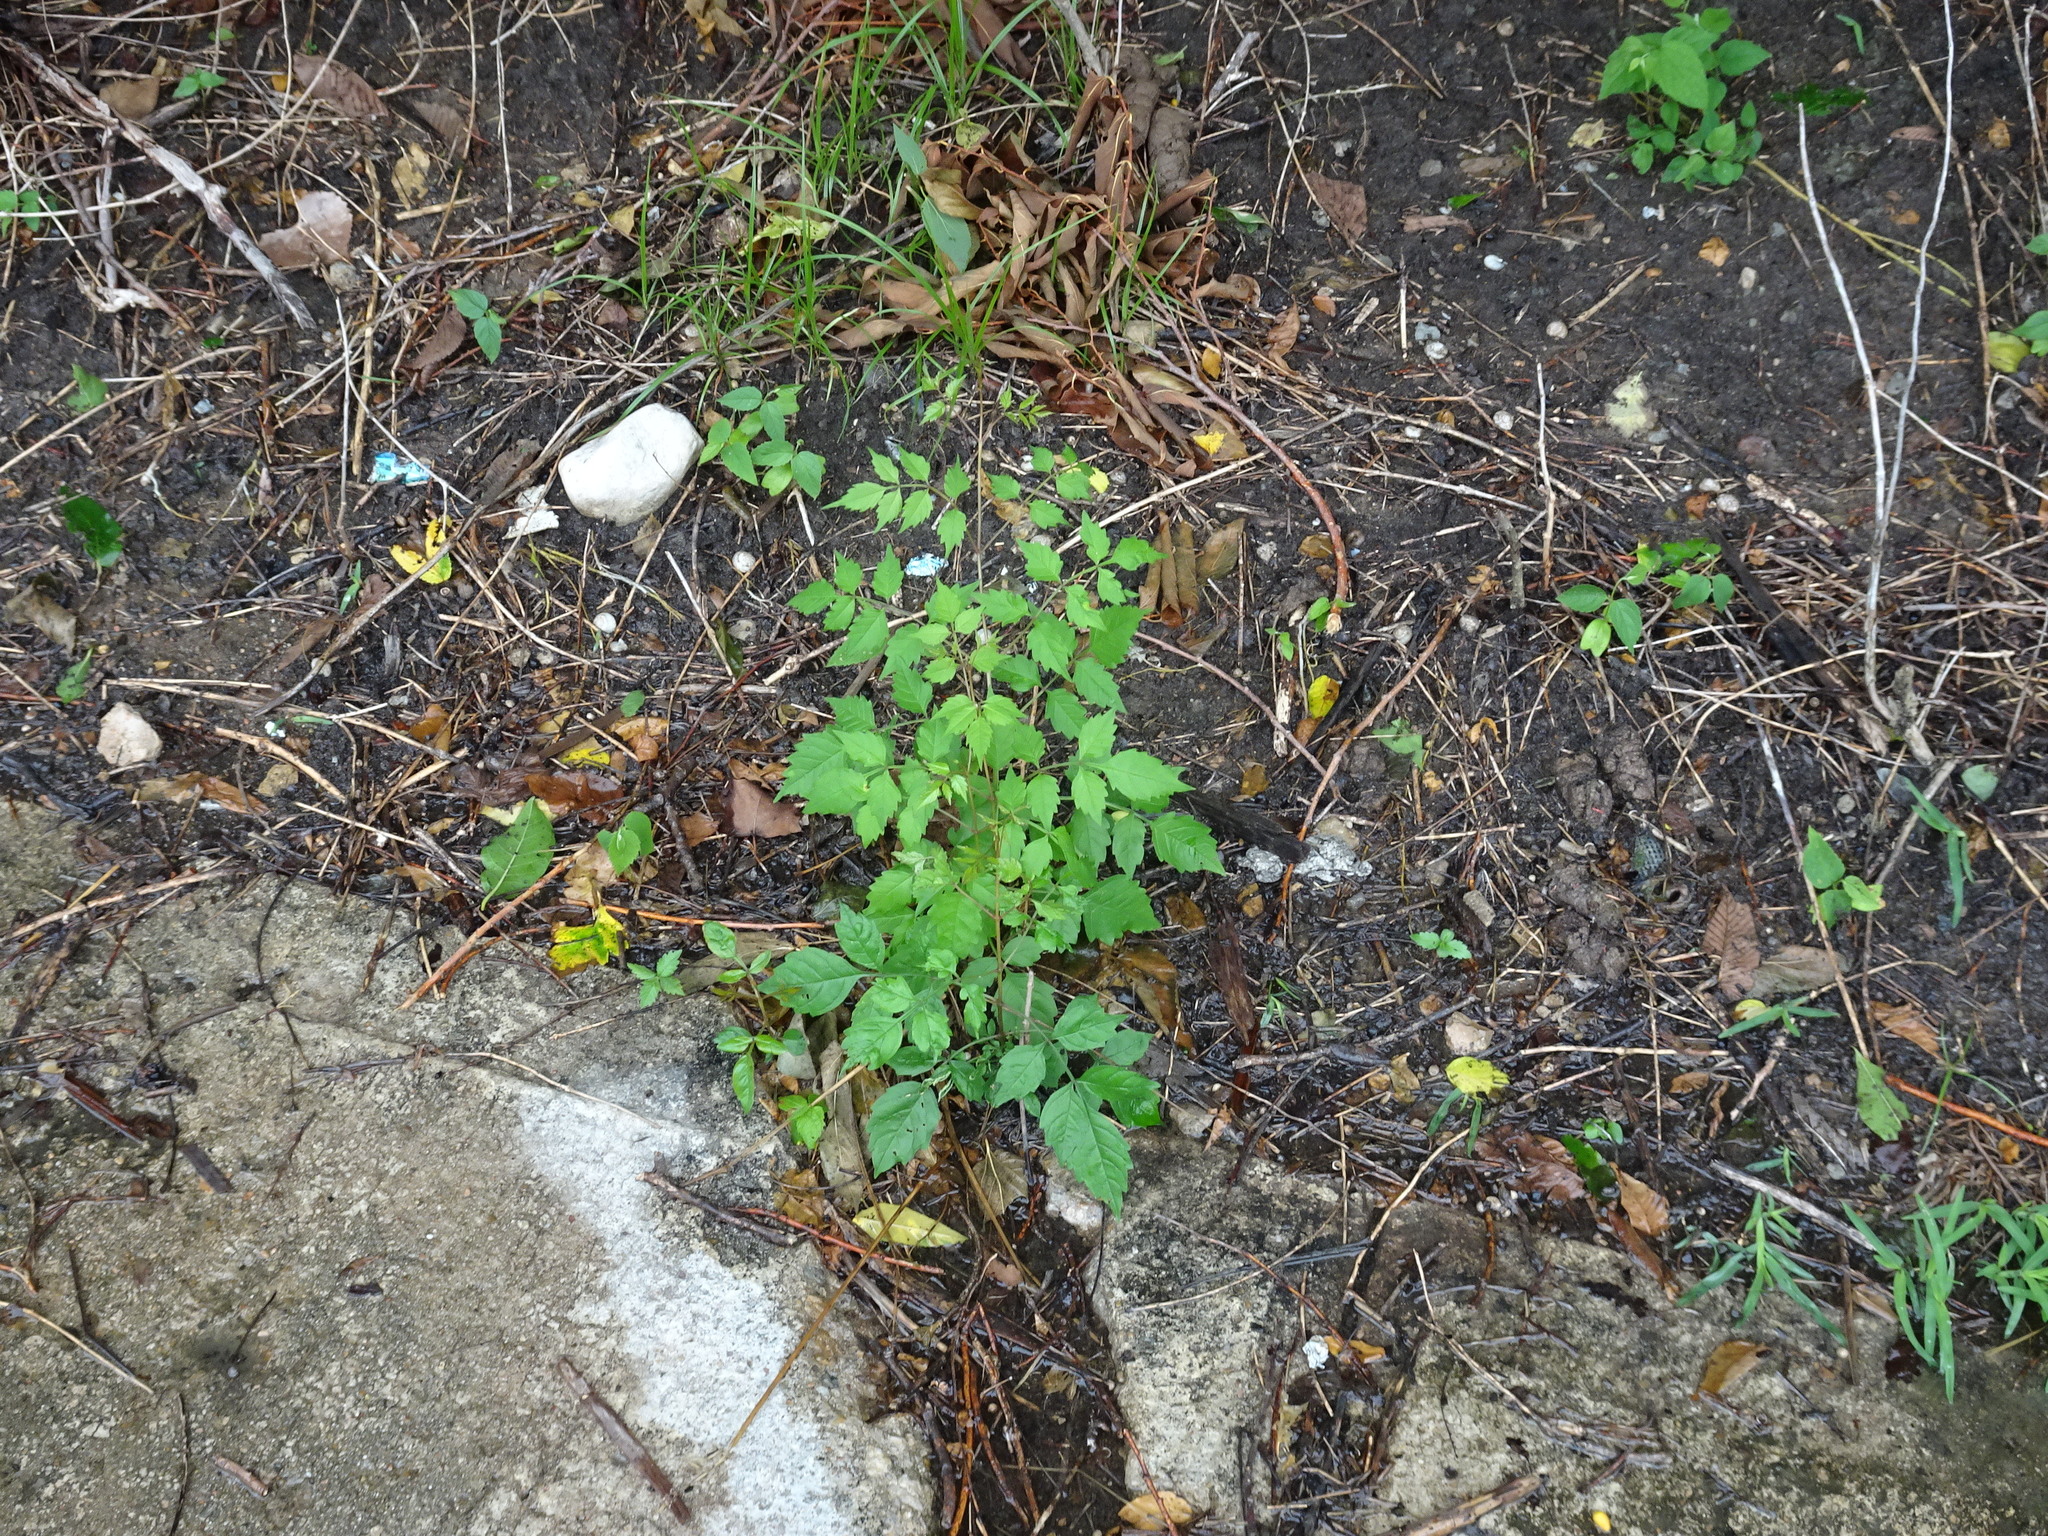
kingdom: Plantae
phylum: Tracheophyta
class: Magnoliopsida
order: Lamiales
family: Bignoniaceae
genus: Campsis
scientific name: Campsis radicans
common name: Trumpet-creeper
